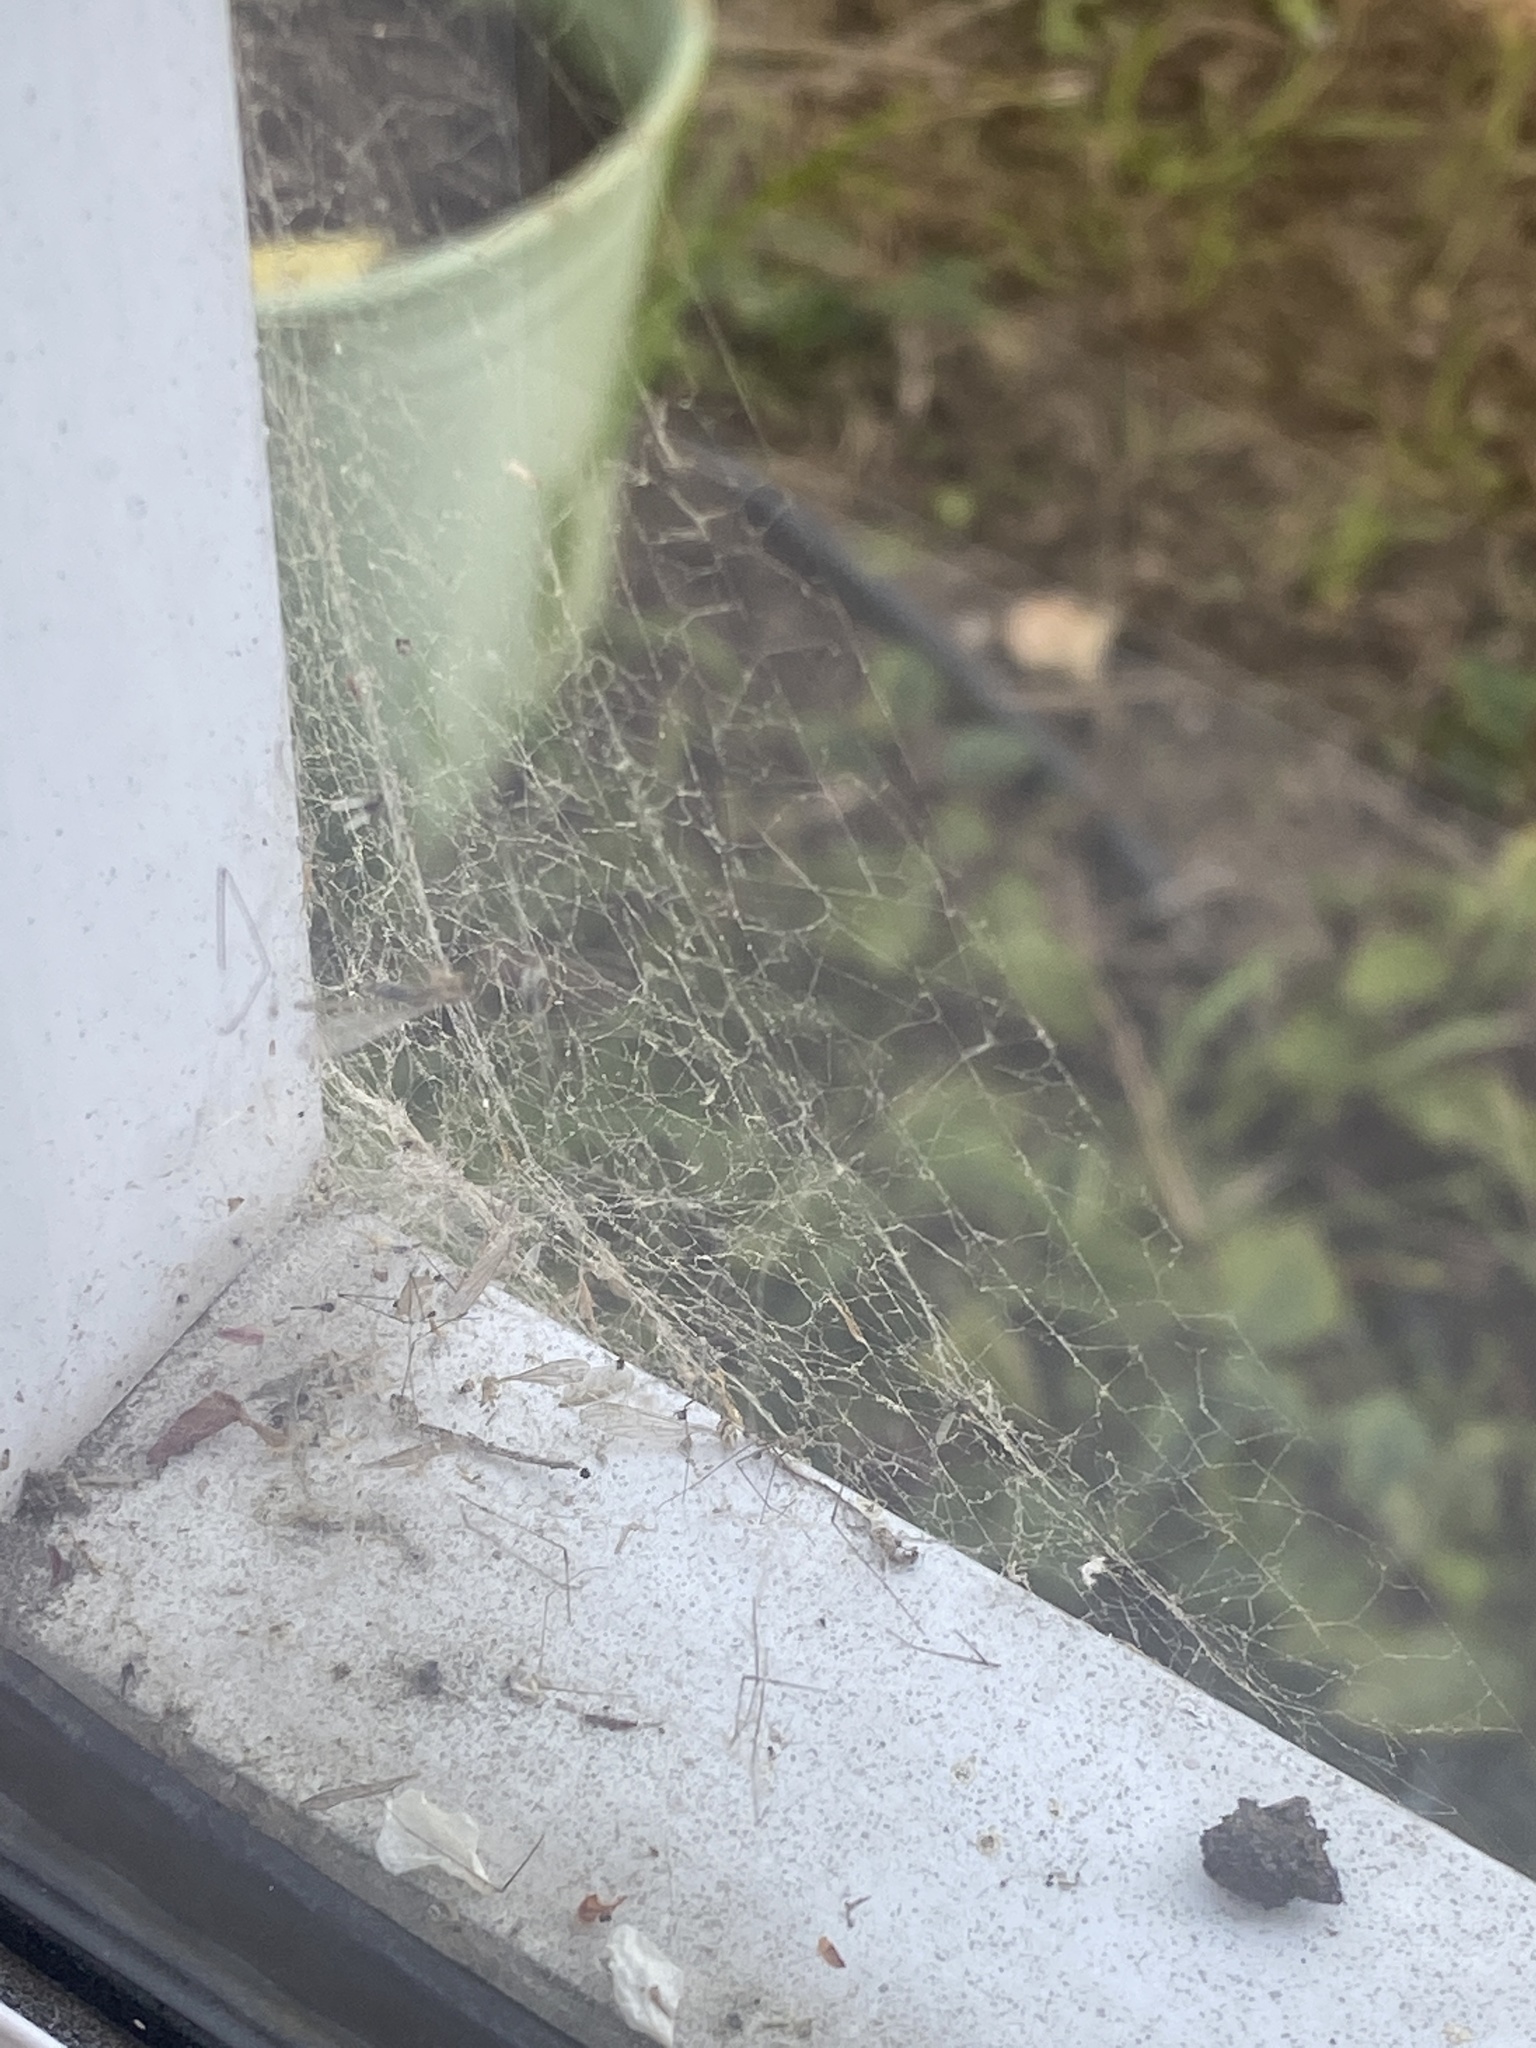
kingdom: Animalia
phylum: Arthropoda
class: Arachnida
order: Araneae
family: Desidae
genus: Badumna
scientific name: Badumna longinqua
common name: Gray house spider
